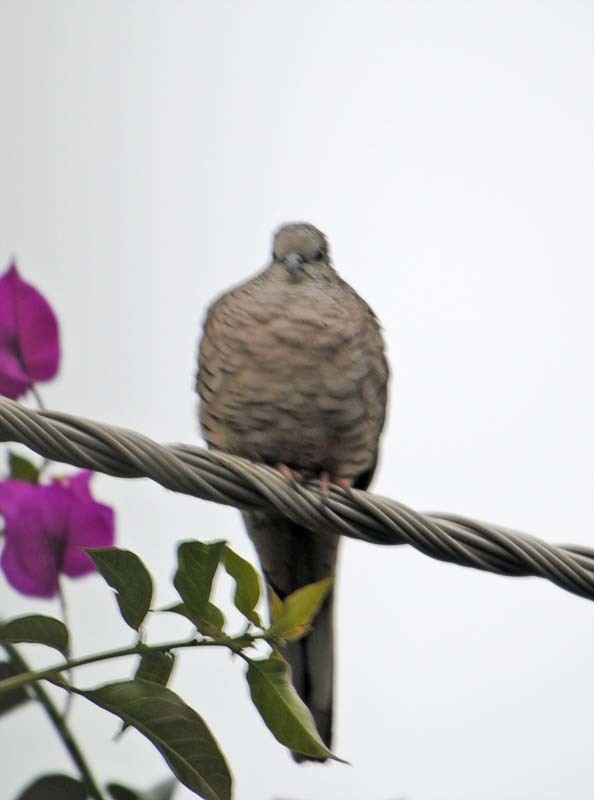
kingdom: Animalia
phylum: Chordata
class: Aves
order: Columbiformes
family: Columbidae
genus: Columbina
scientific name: Columbina inca
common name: Inca dove
